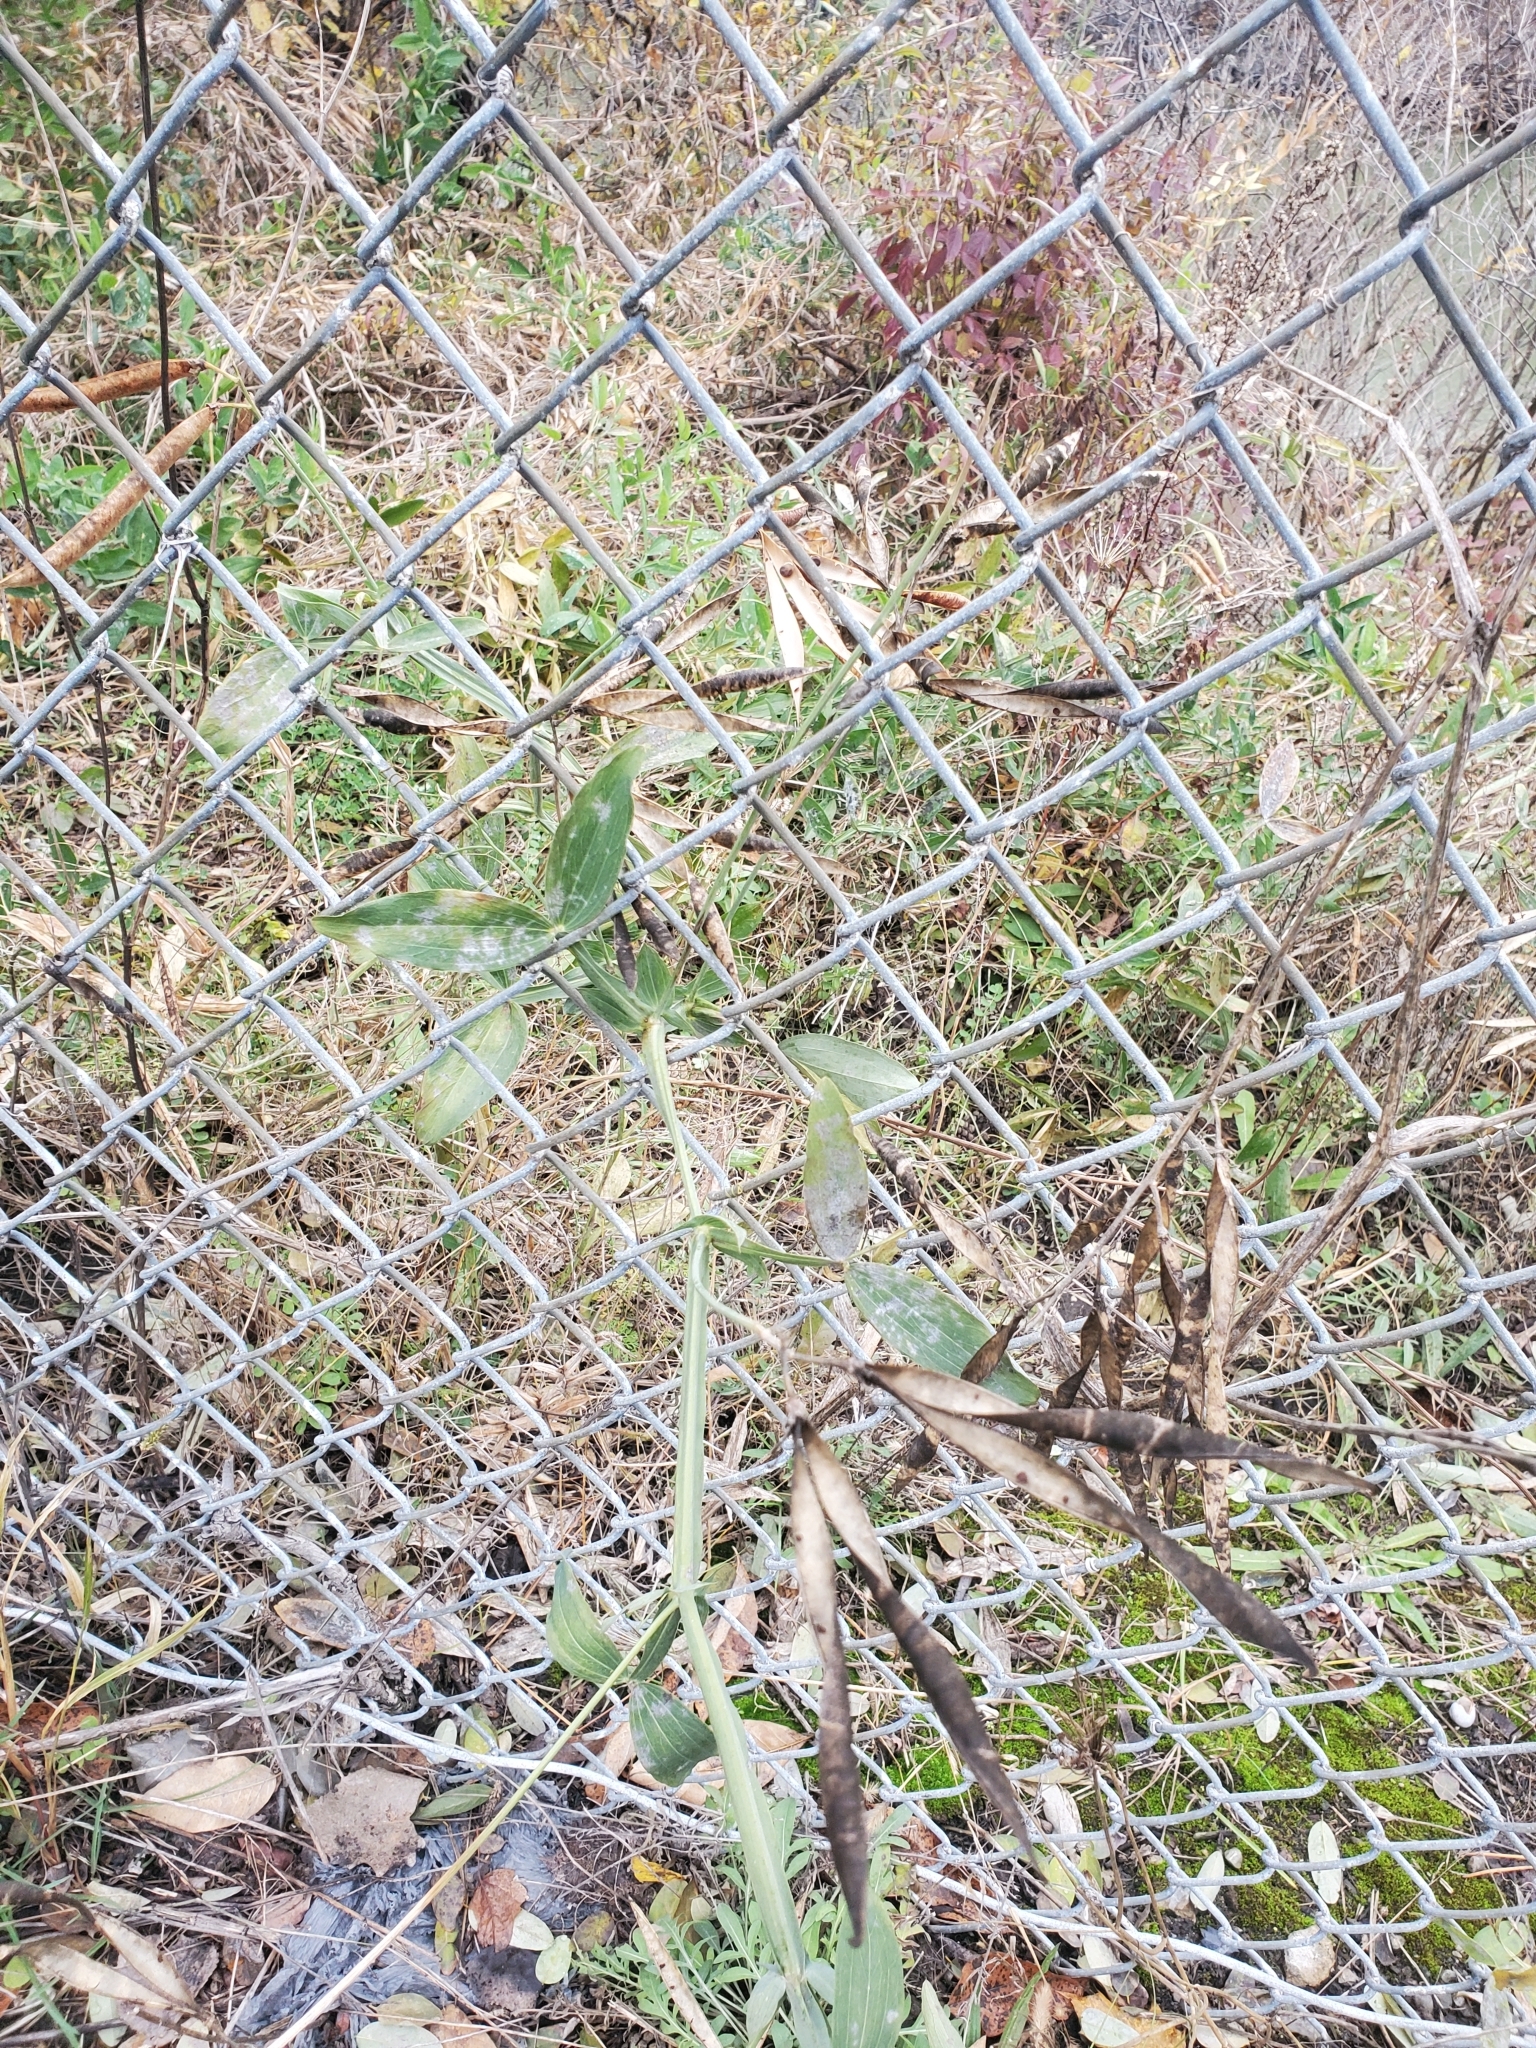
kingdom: Plantae
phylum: Tracheophyta
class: Magnoliopsida
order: Fabales
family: Fabaceae
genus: Lathyrus
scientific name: Lathyrus latifolius
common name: Perennial pea
